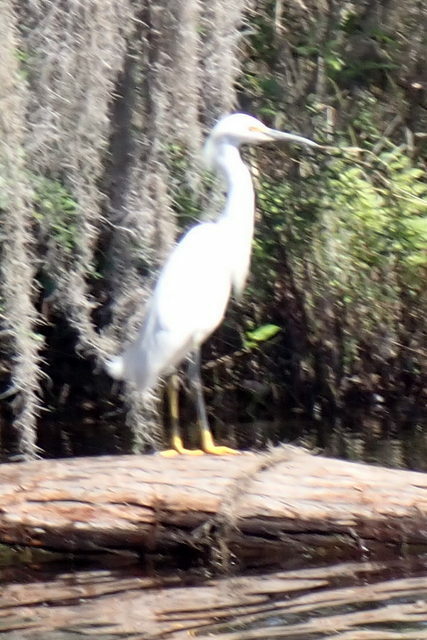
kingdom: Animalia
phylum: Chordata
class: Aves
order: Pelecaniformes
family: Ardeidae
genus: Egretta
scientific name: Egretta thula
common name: Snowy egret
